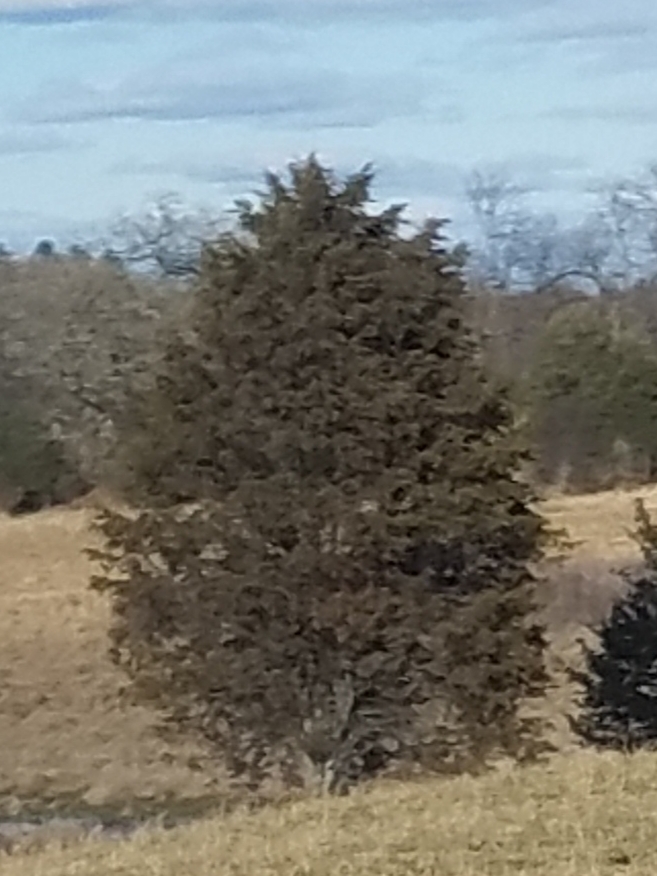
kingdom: Plantae
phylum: Tracheophyta
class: Pinopsida
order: Pinales
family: Cupressaceae
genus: Juniperus
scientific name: Juniperus virginiana
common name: Red juniper
